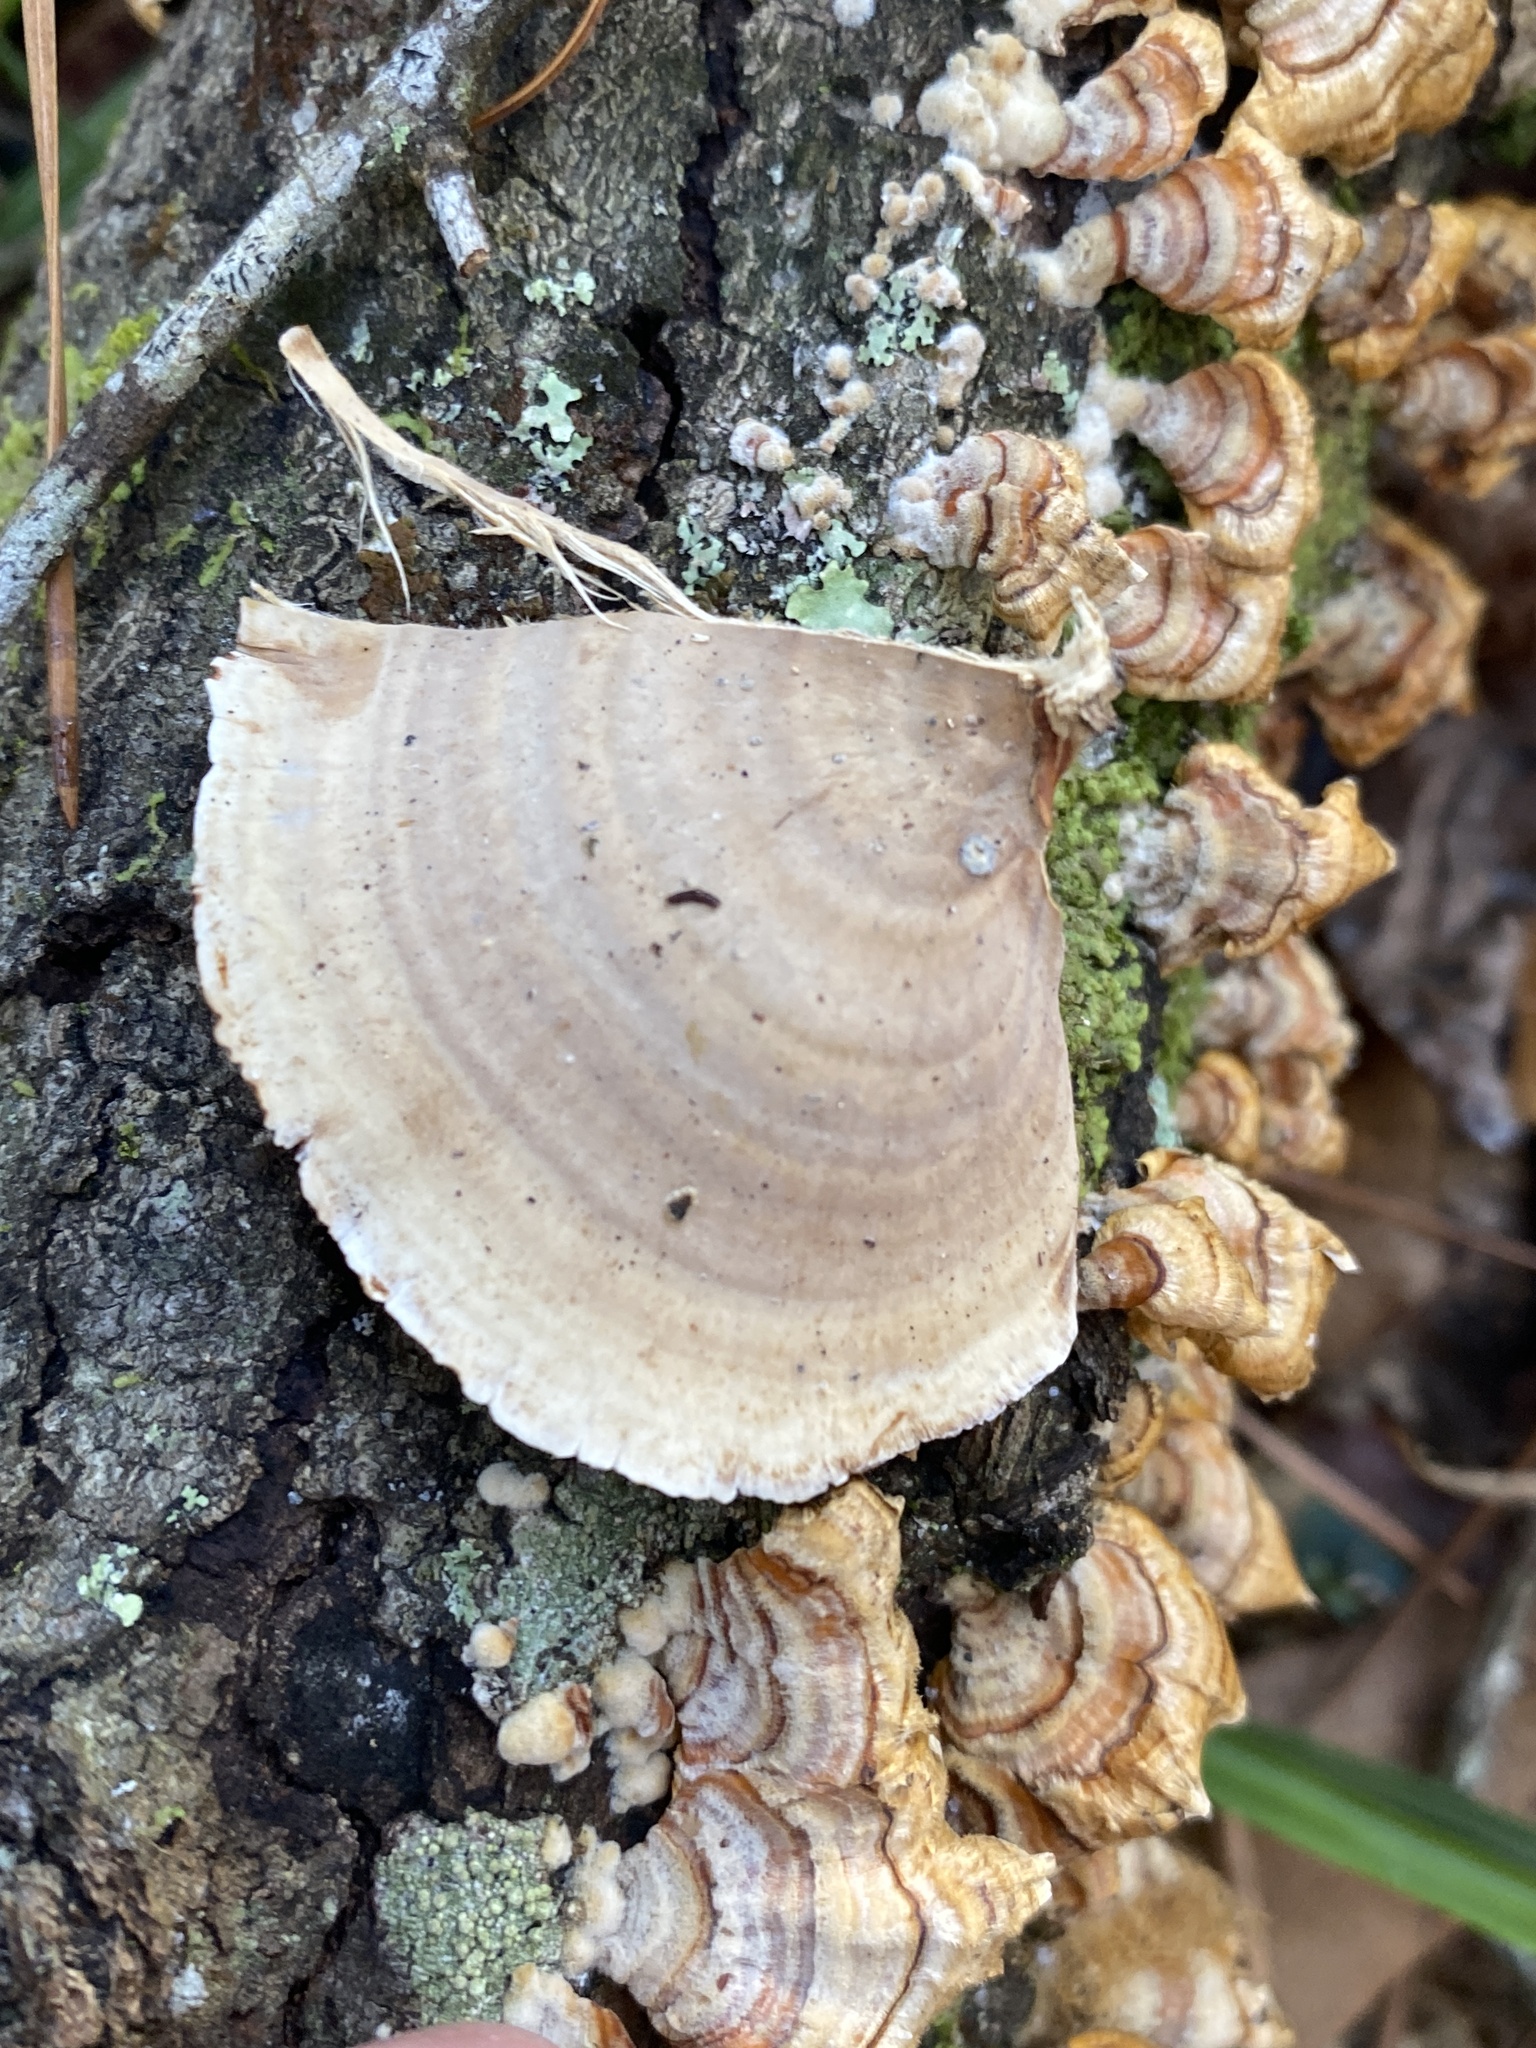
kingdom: Fungi
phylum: Basidiomycota
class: Agaricomycetes
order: Russulales
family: Stereaceae
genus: Stereum
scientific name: Stereum lobatum
